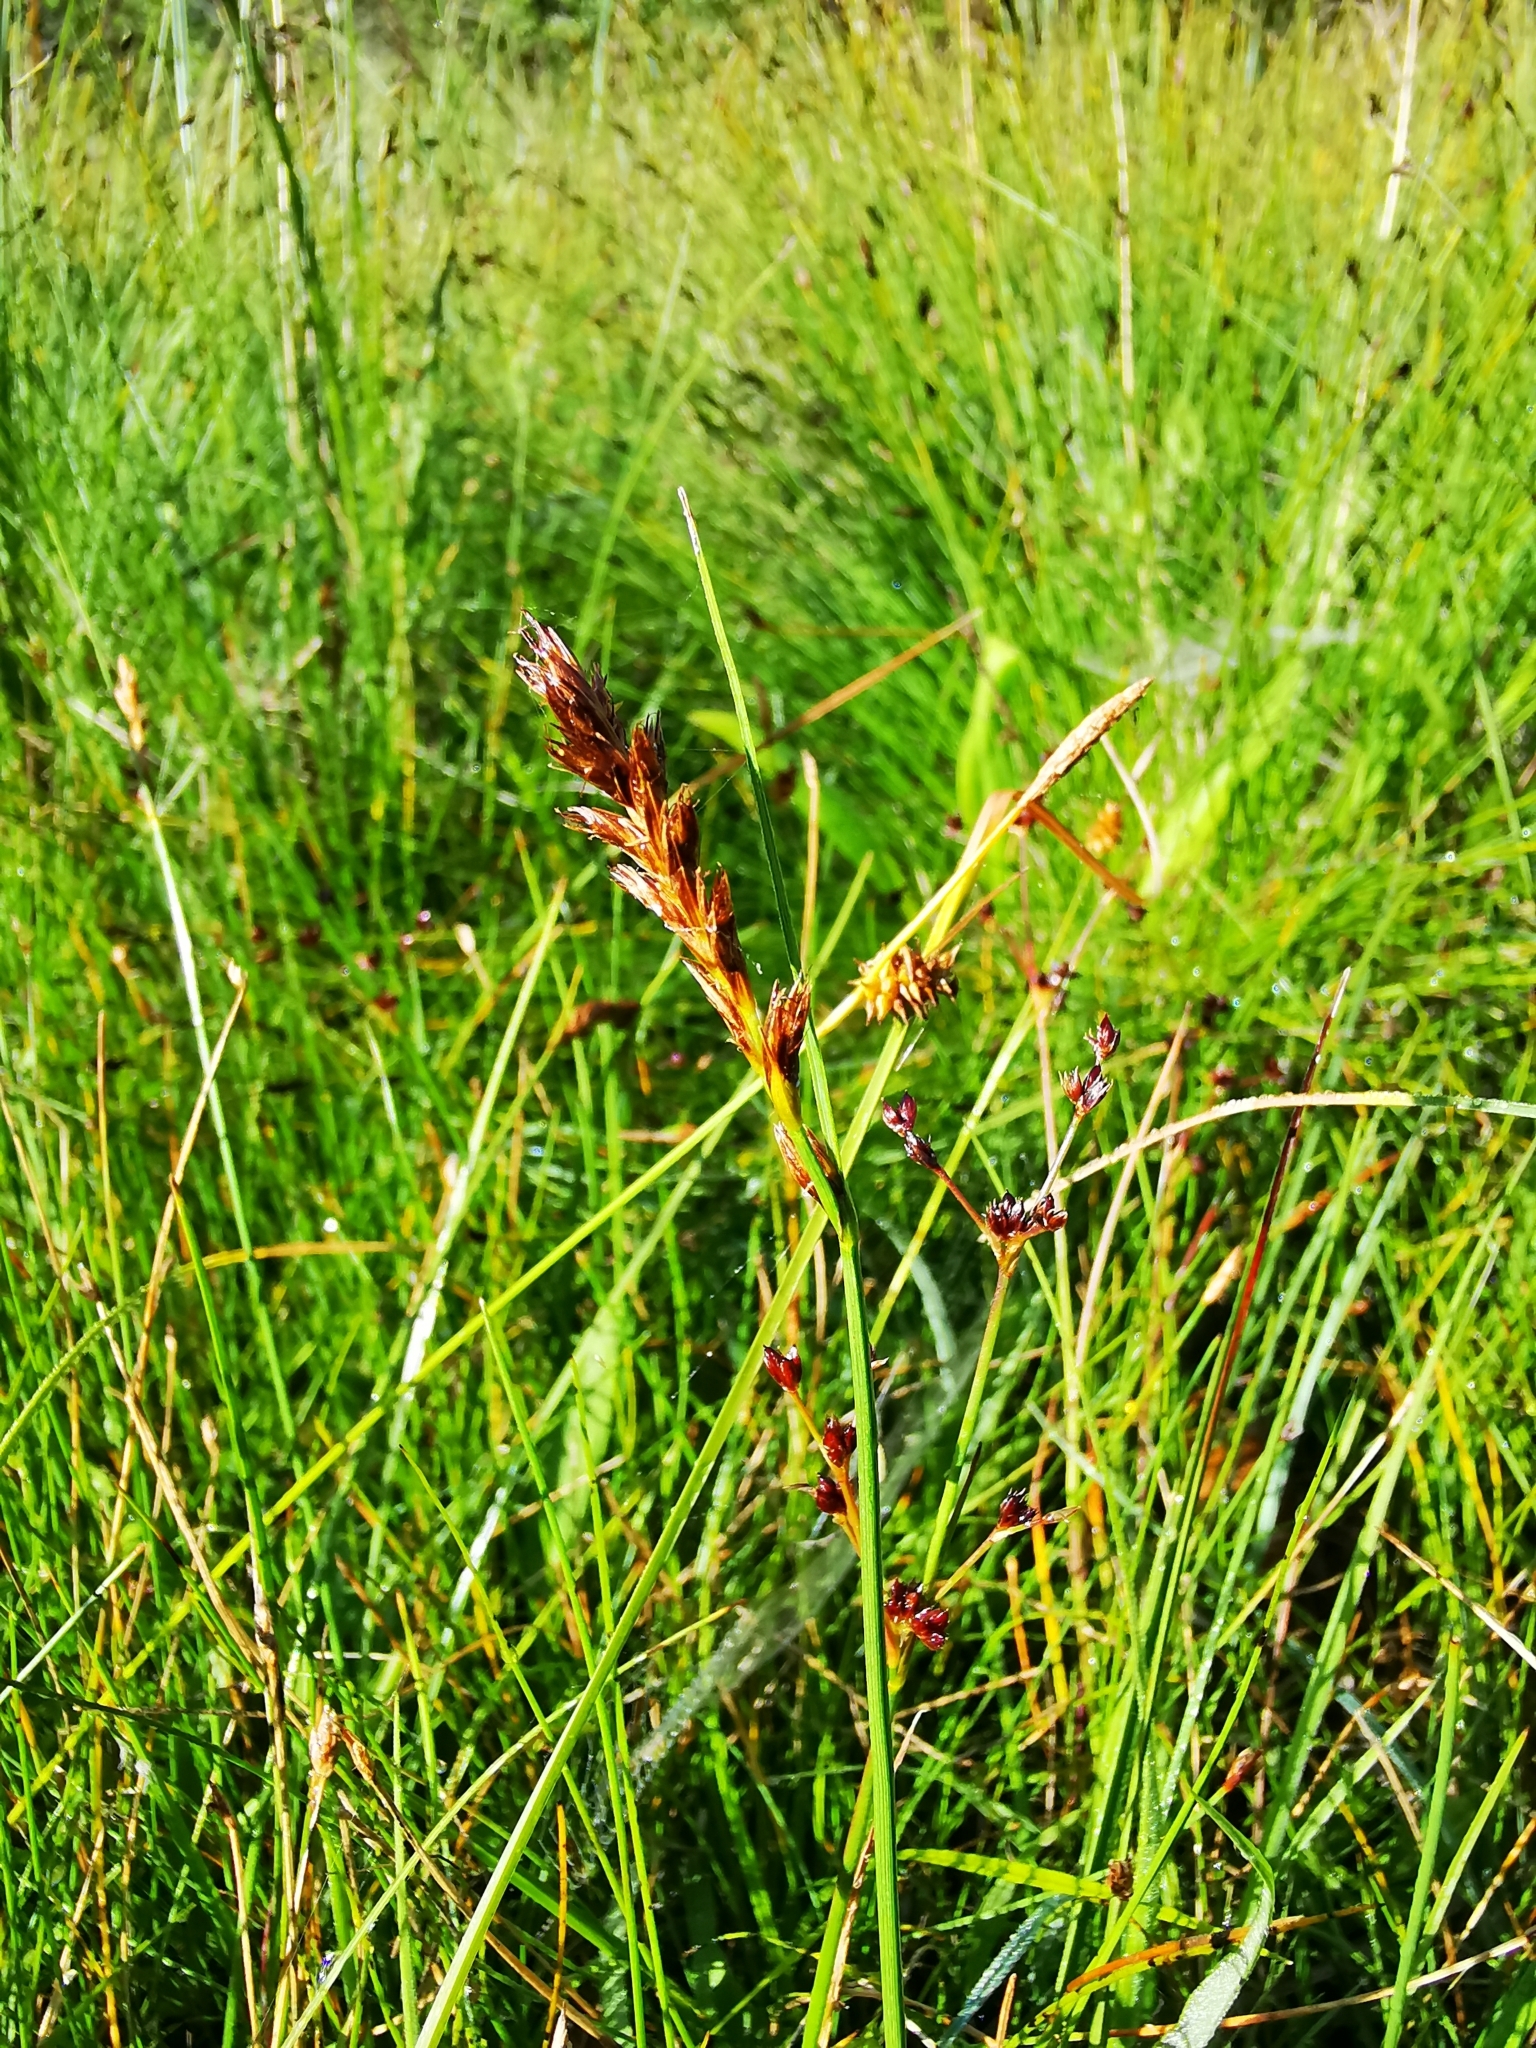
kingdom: Plantae
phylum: Tracheophyta
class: Liliopsida
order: Poales
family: Cyperaceae
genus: Carex
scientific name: Carex disticha
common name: Brown sedge
